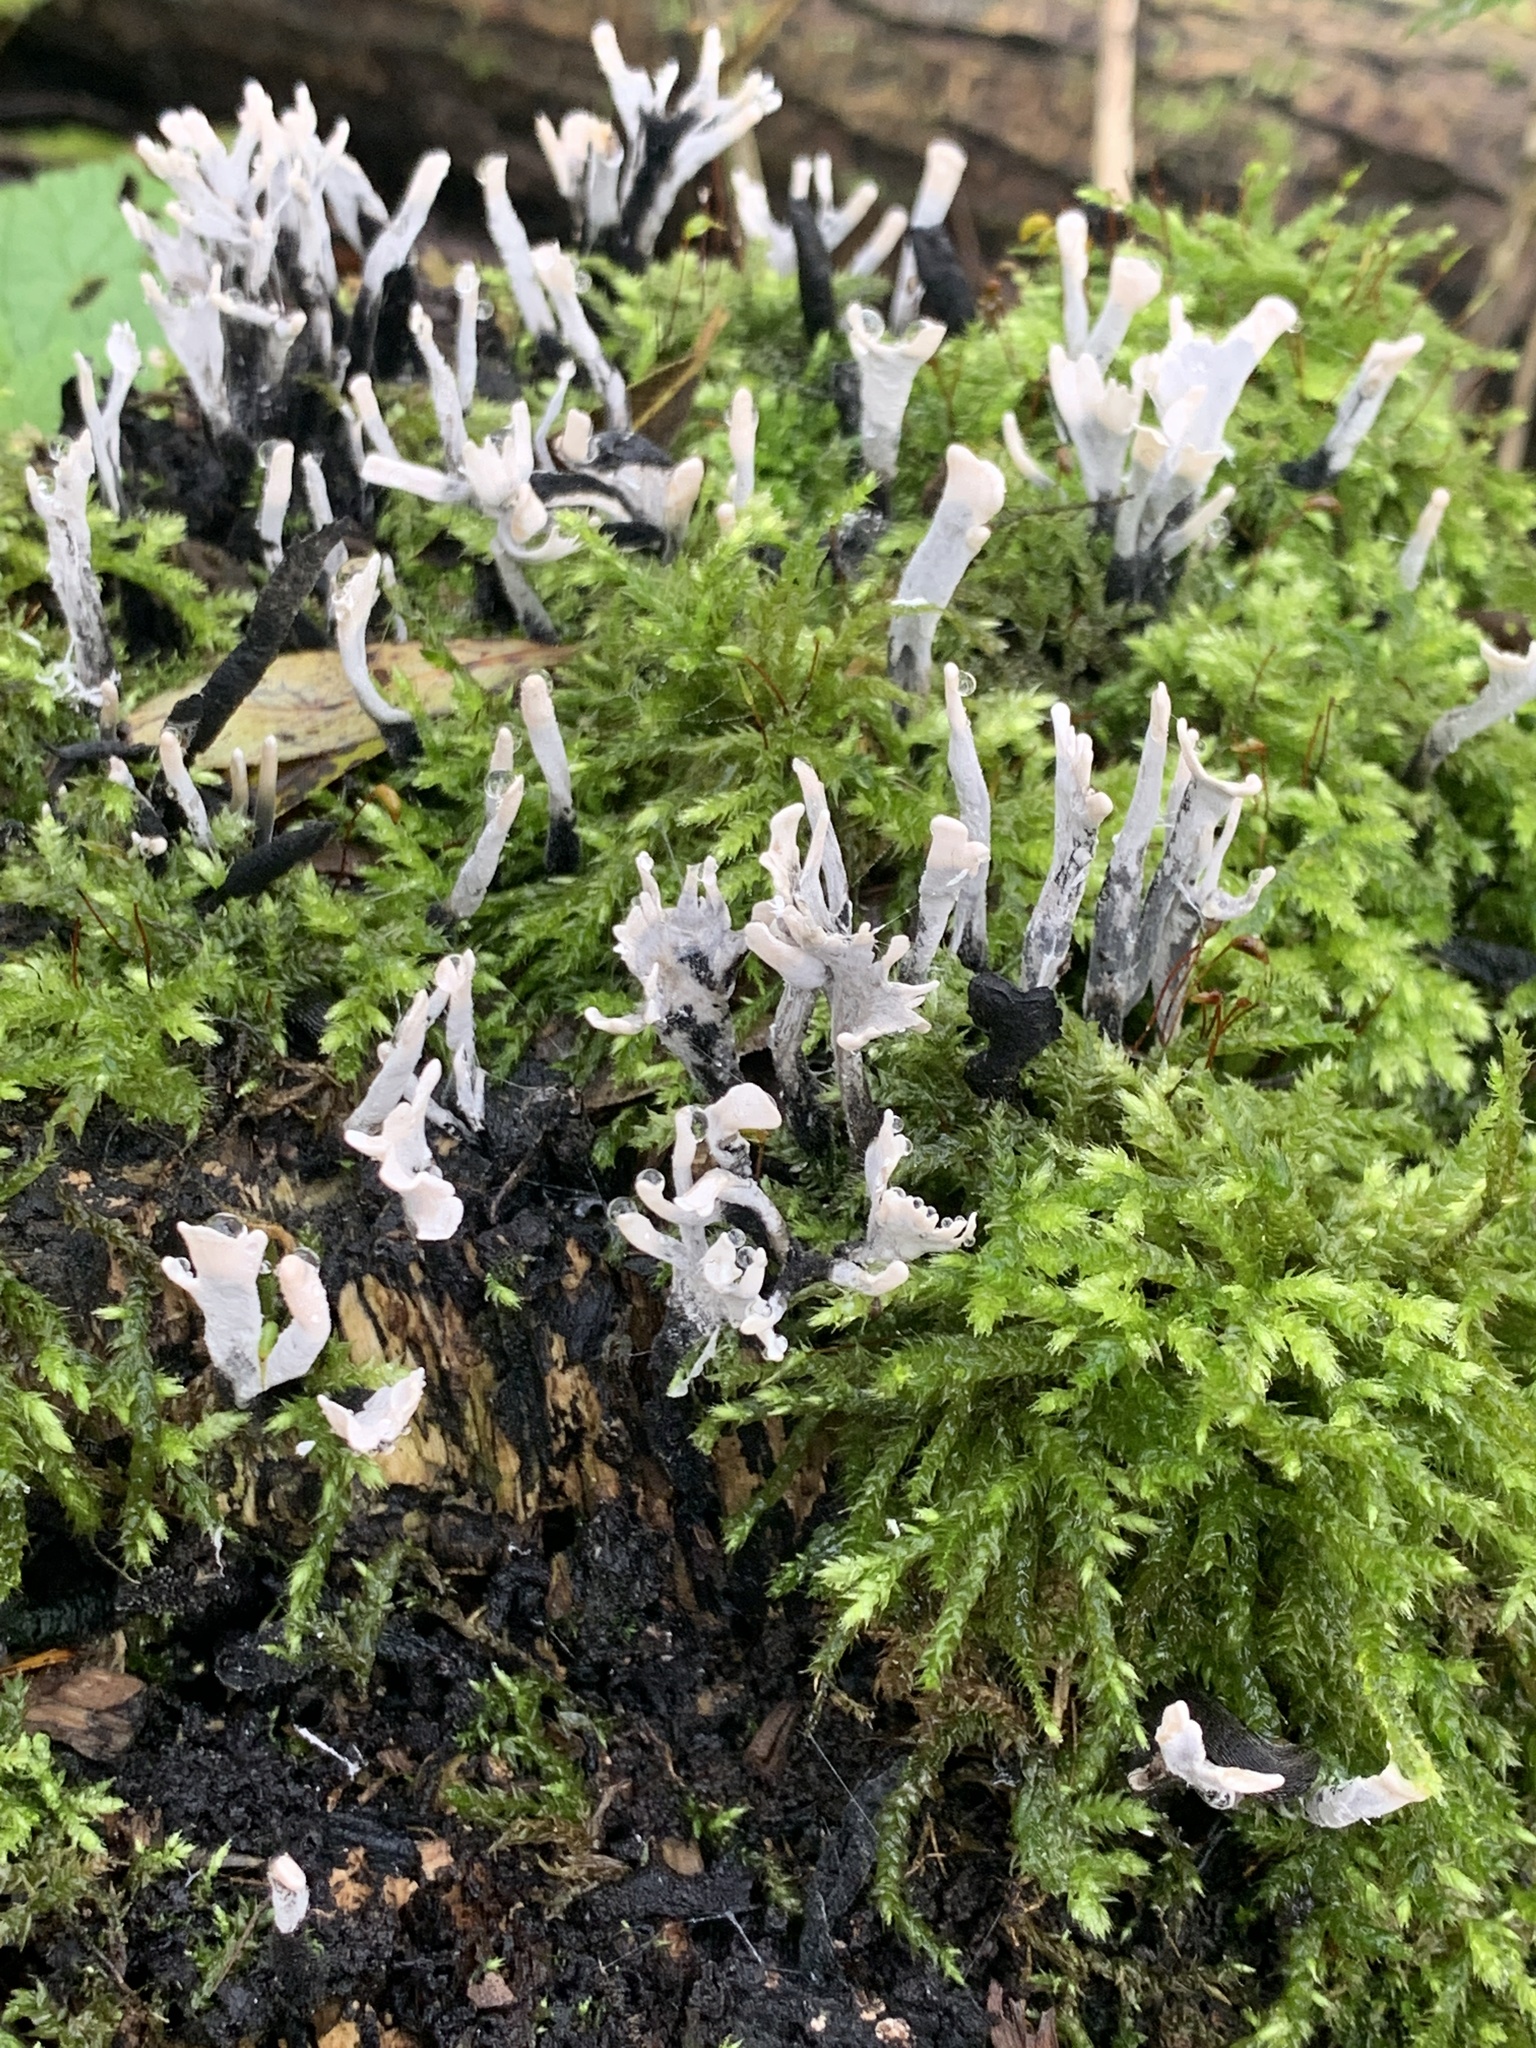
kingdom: Fungi
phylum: Ascomycota
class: Sordariomycetes
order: Xylariales
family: Xylariaceae
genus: Xylaria
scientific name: Xylaria hypoxylon
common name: Candle-snuff fungus
